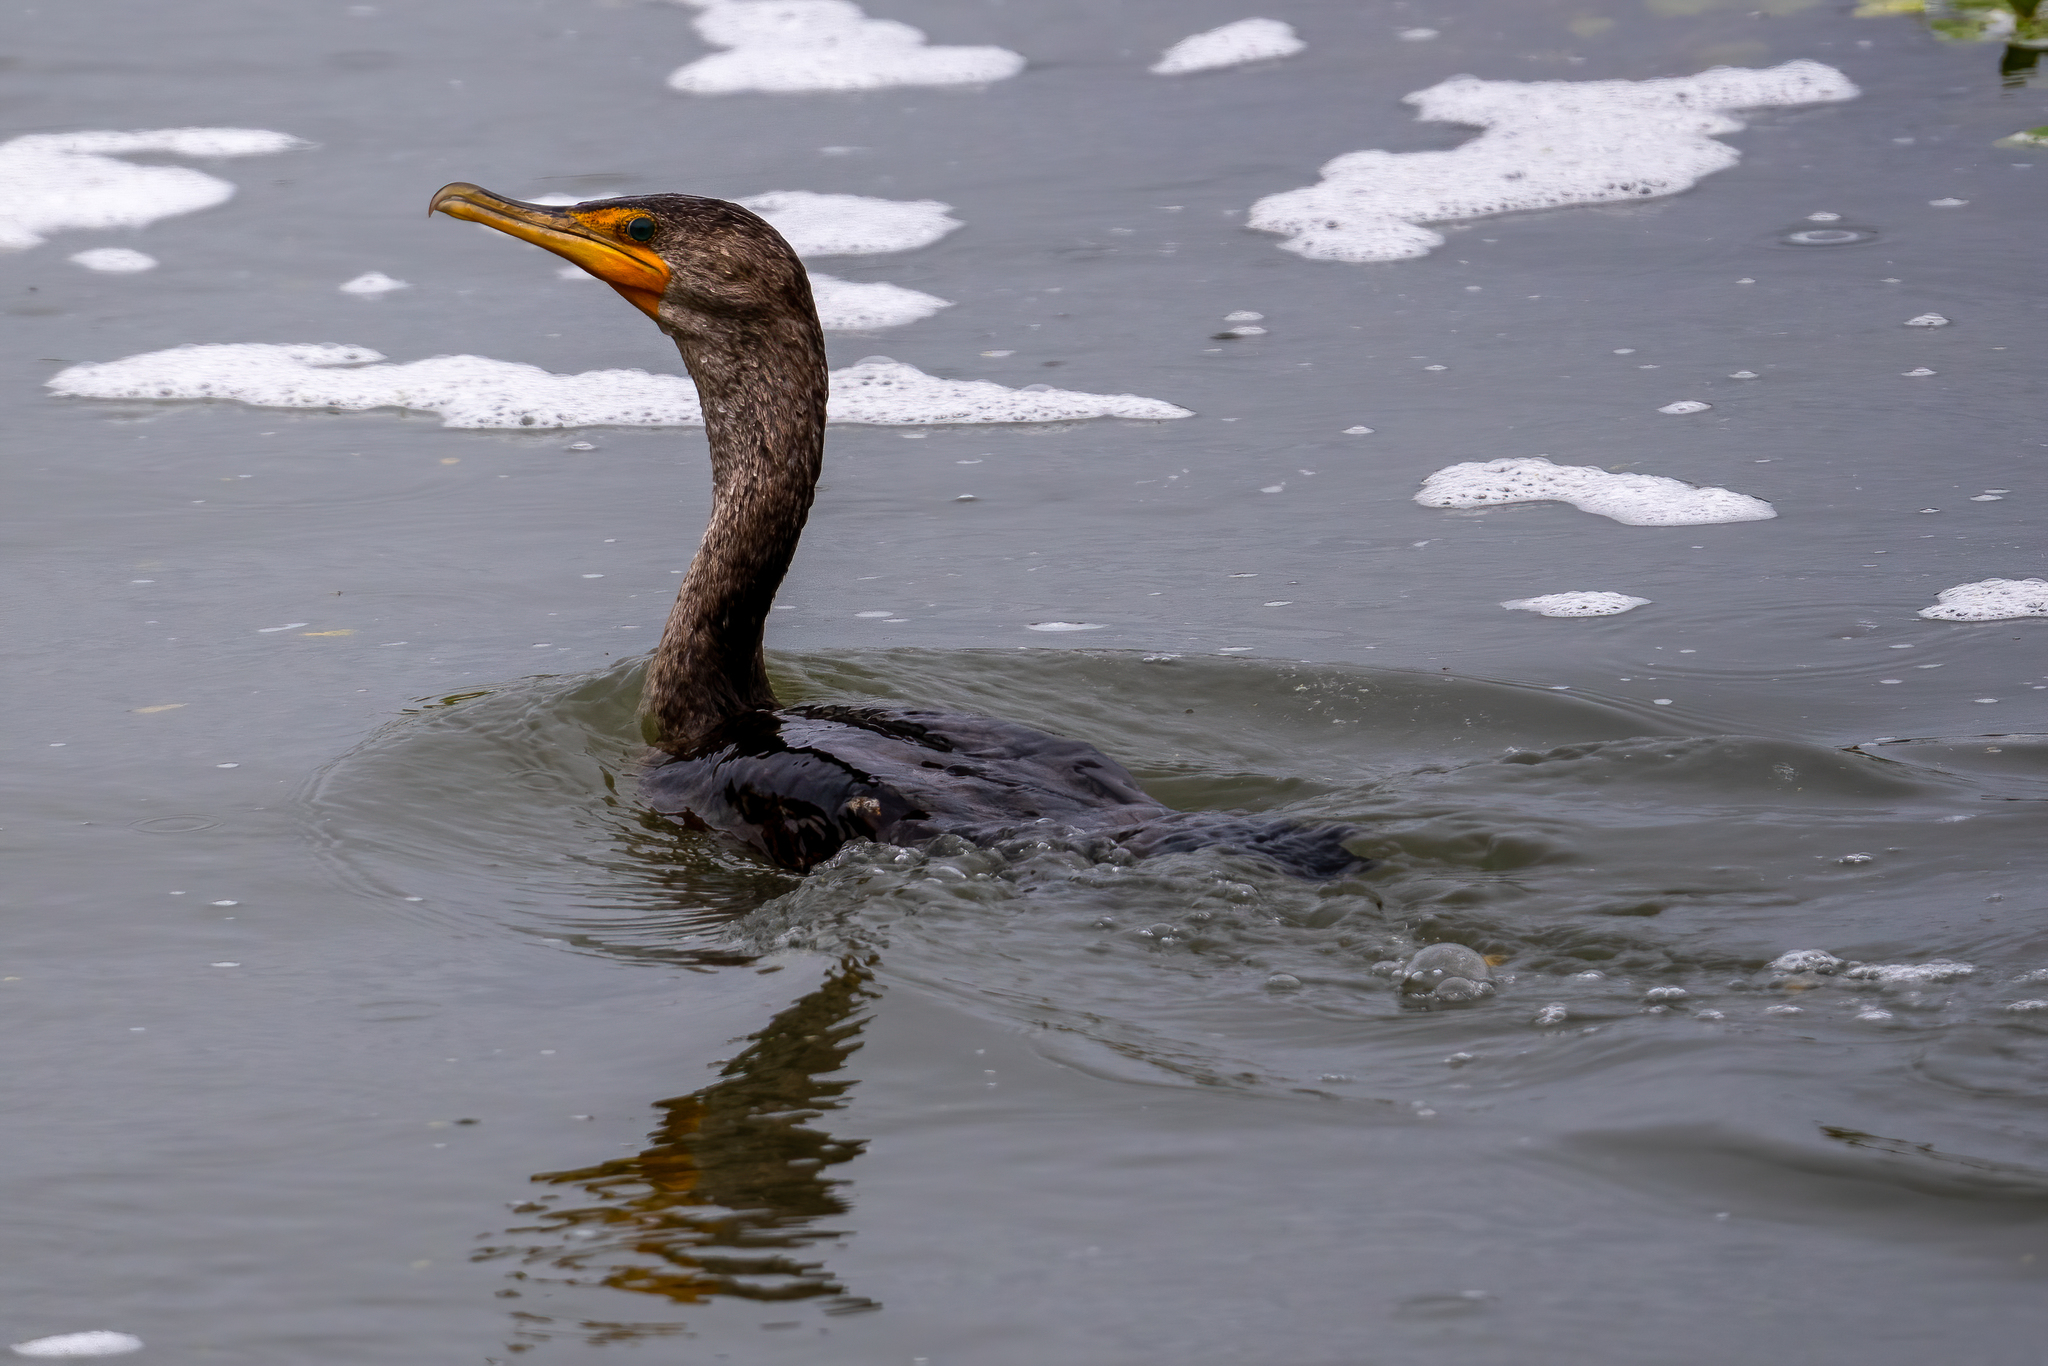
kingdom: Animalia
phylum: Chordata
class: Aves
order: Suliformes
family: Phalacrocoracidae
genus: Phalacrocorax
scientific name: Phalacrocorax auritus
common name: Double-crested cormorant
